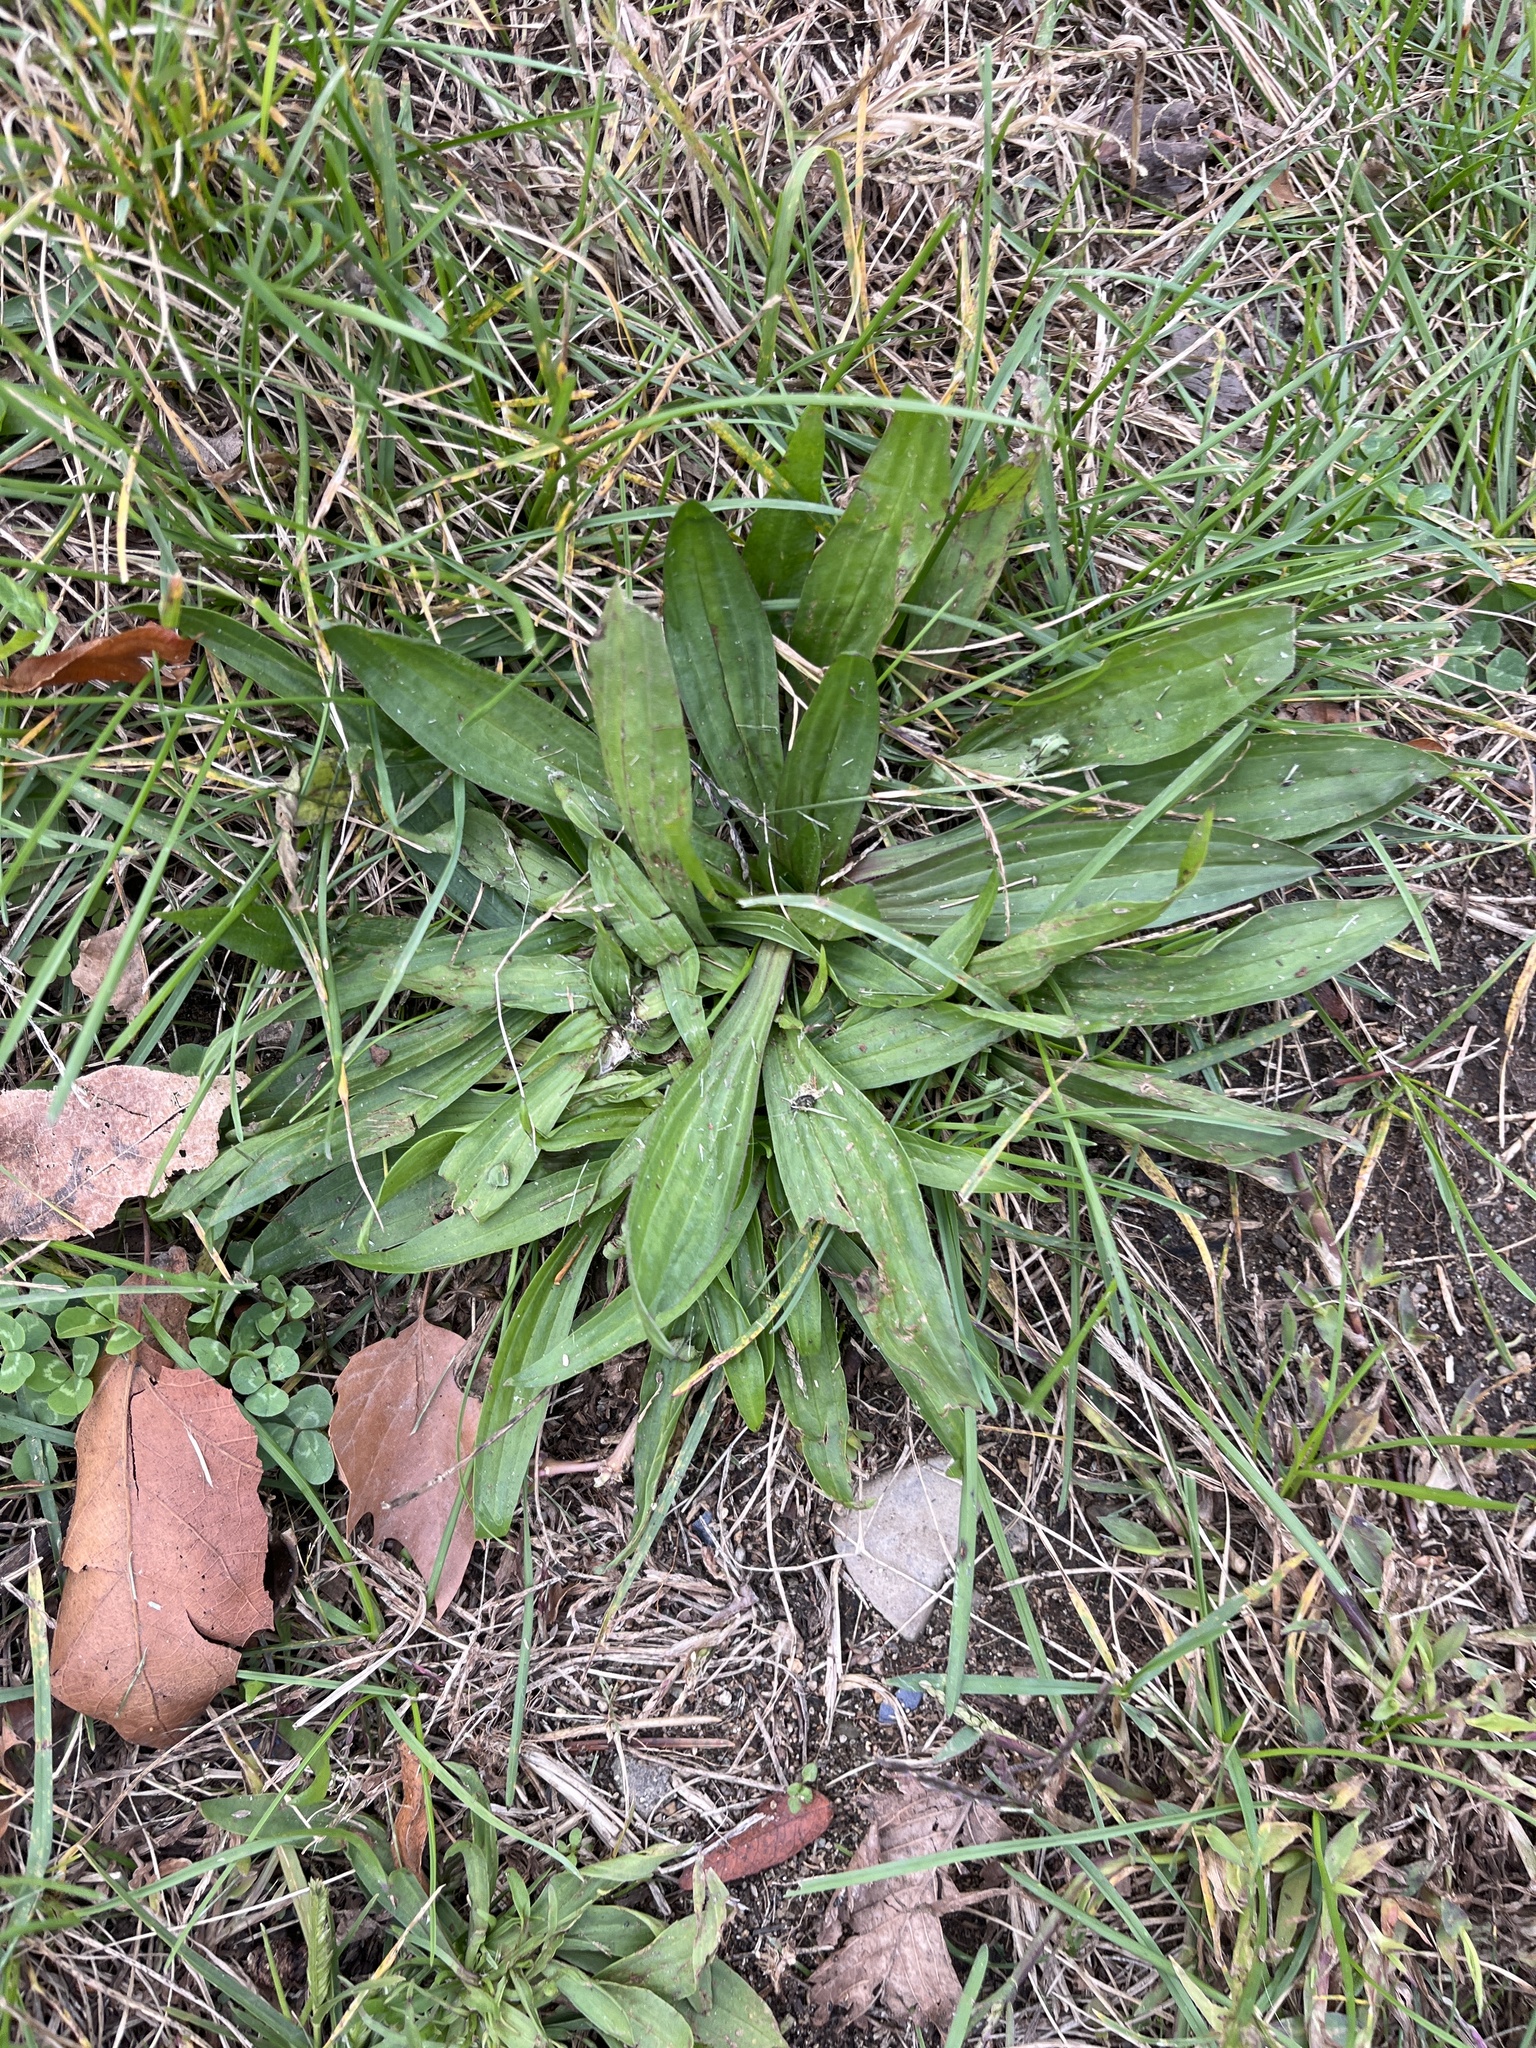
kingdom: Plantae
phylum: Tracheophyta
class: Magnoliopsida
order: Lamiales
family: Plantaginaceae
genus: Plantago
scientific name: Plantago lanceolata
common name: Ribwort plantain
